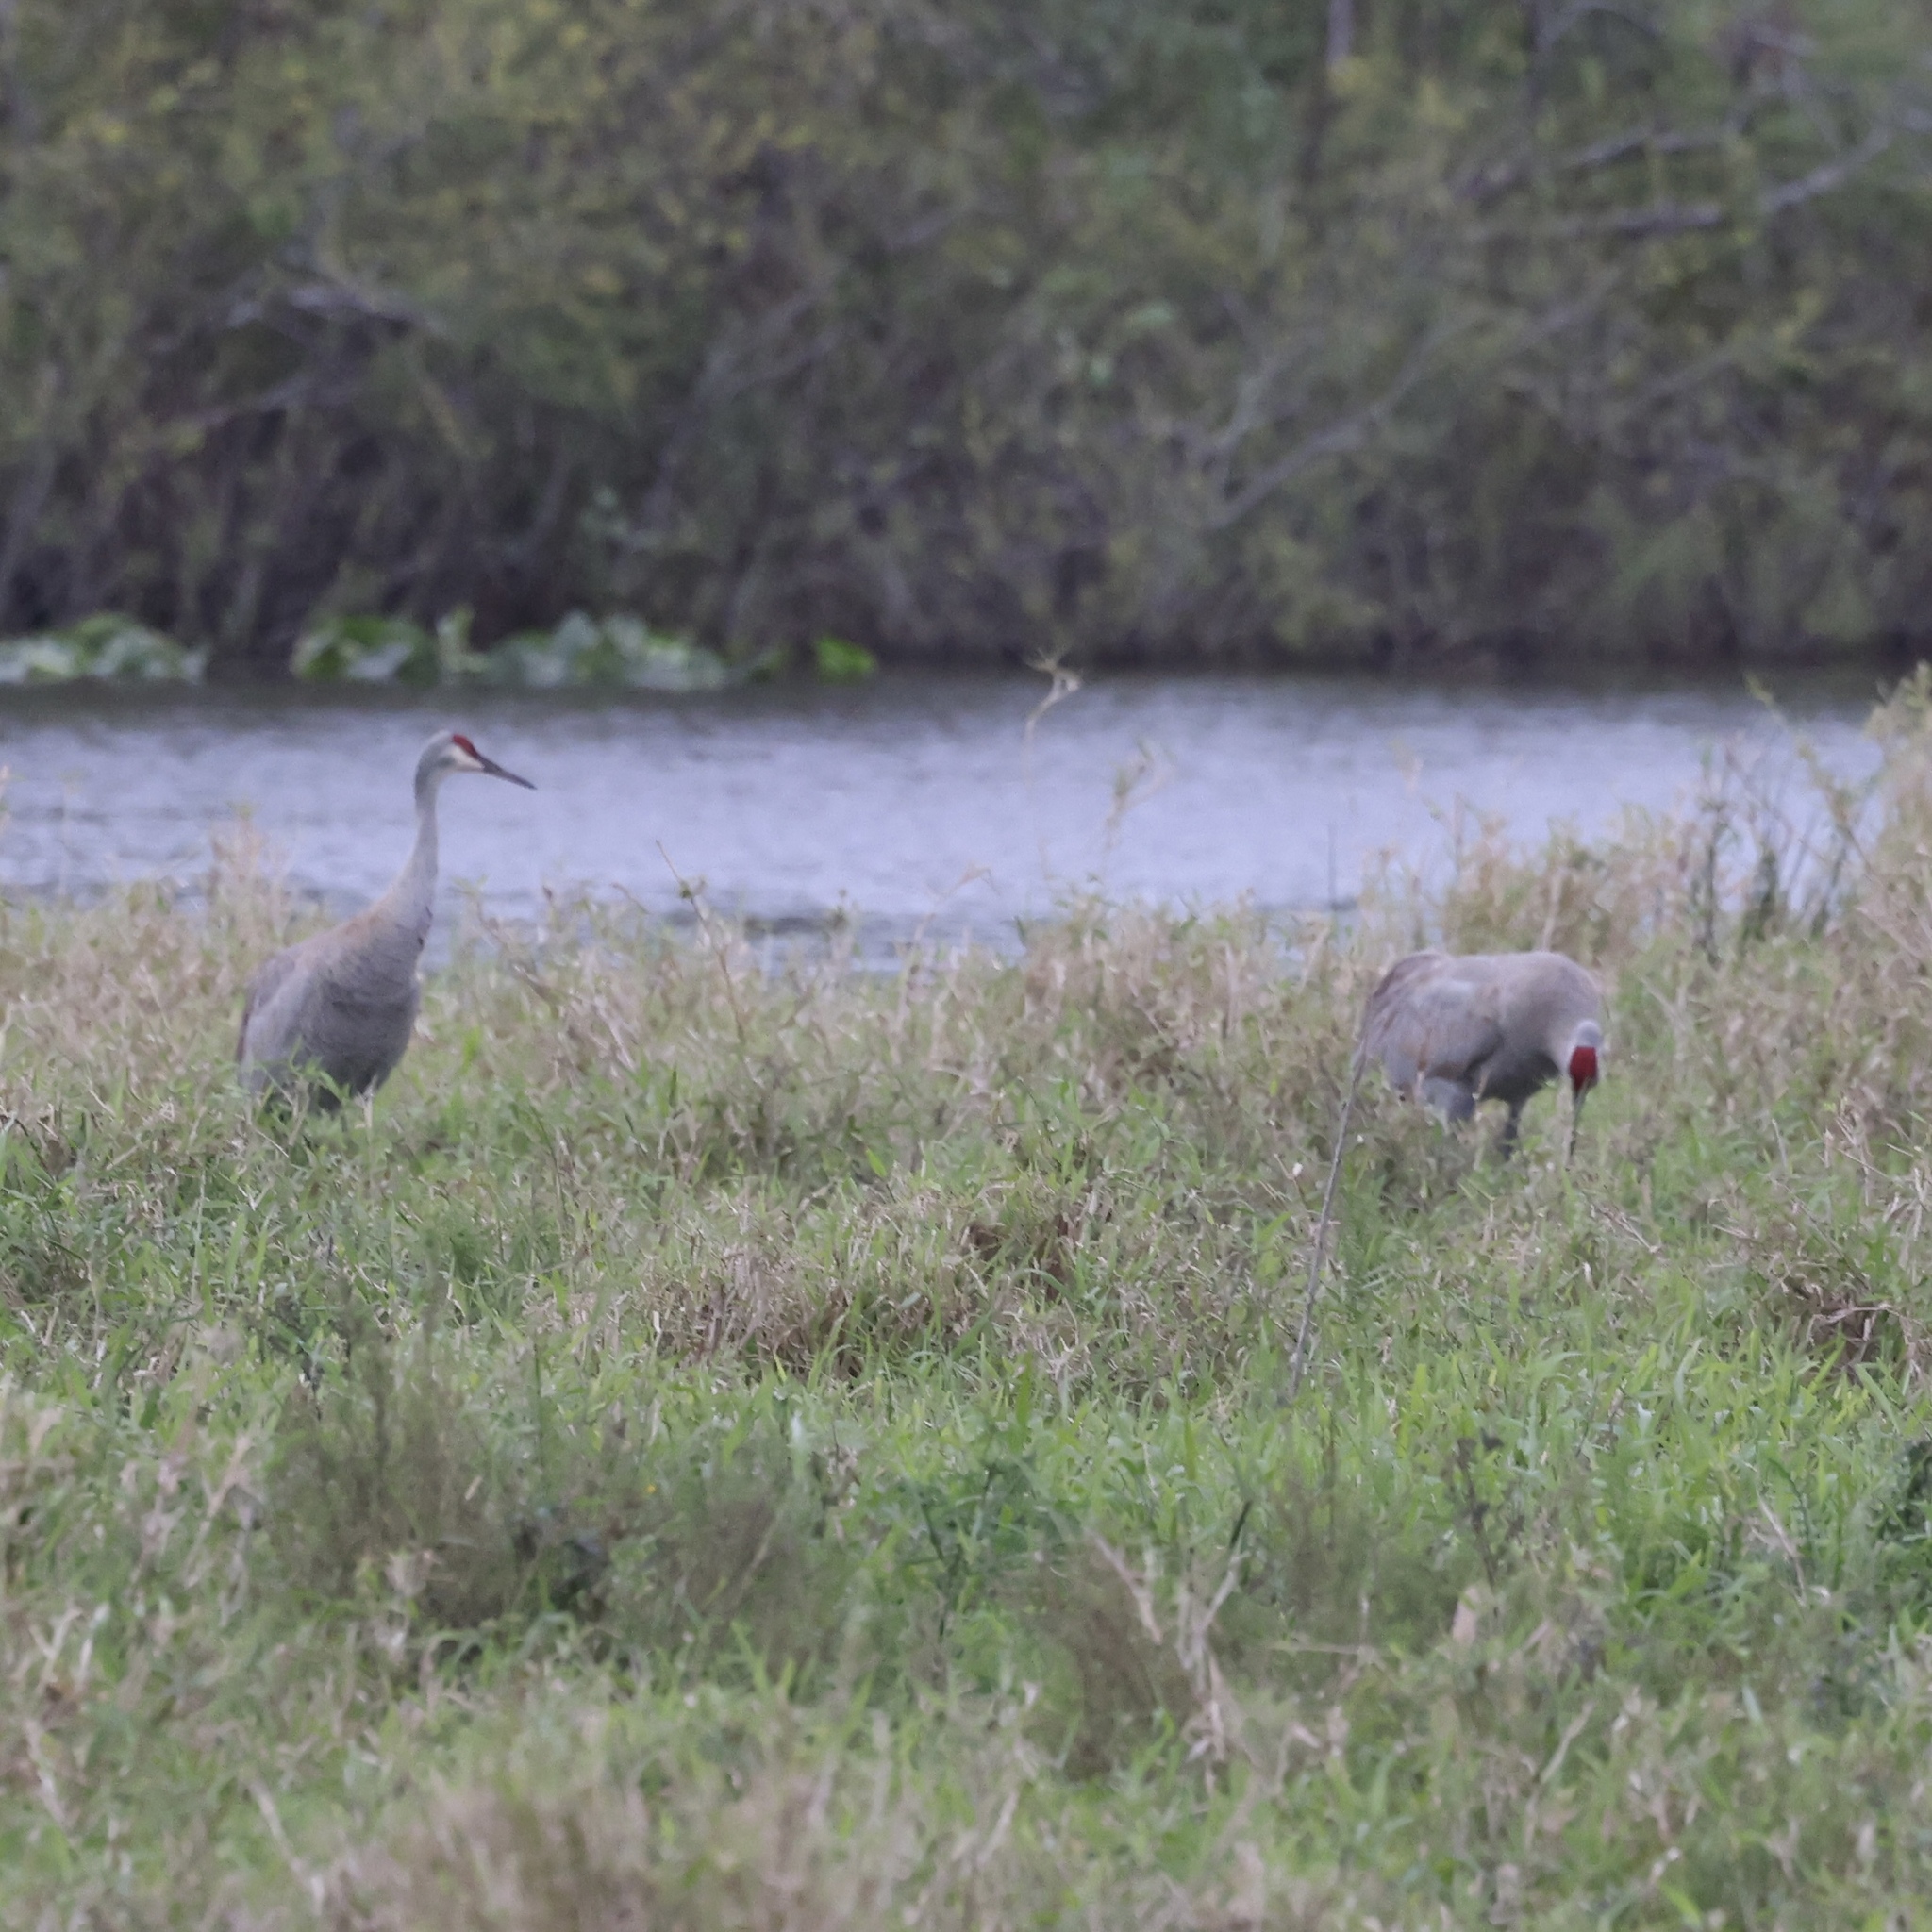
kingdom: Animalia
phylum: Chordata
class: Aves
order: Gruiformes
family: Gruidae
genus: Grus
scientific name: Grus canadensis
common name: Sandhill crane
